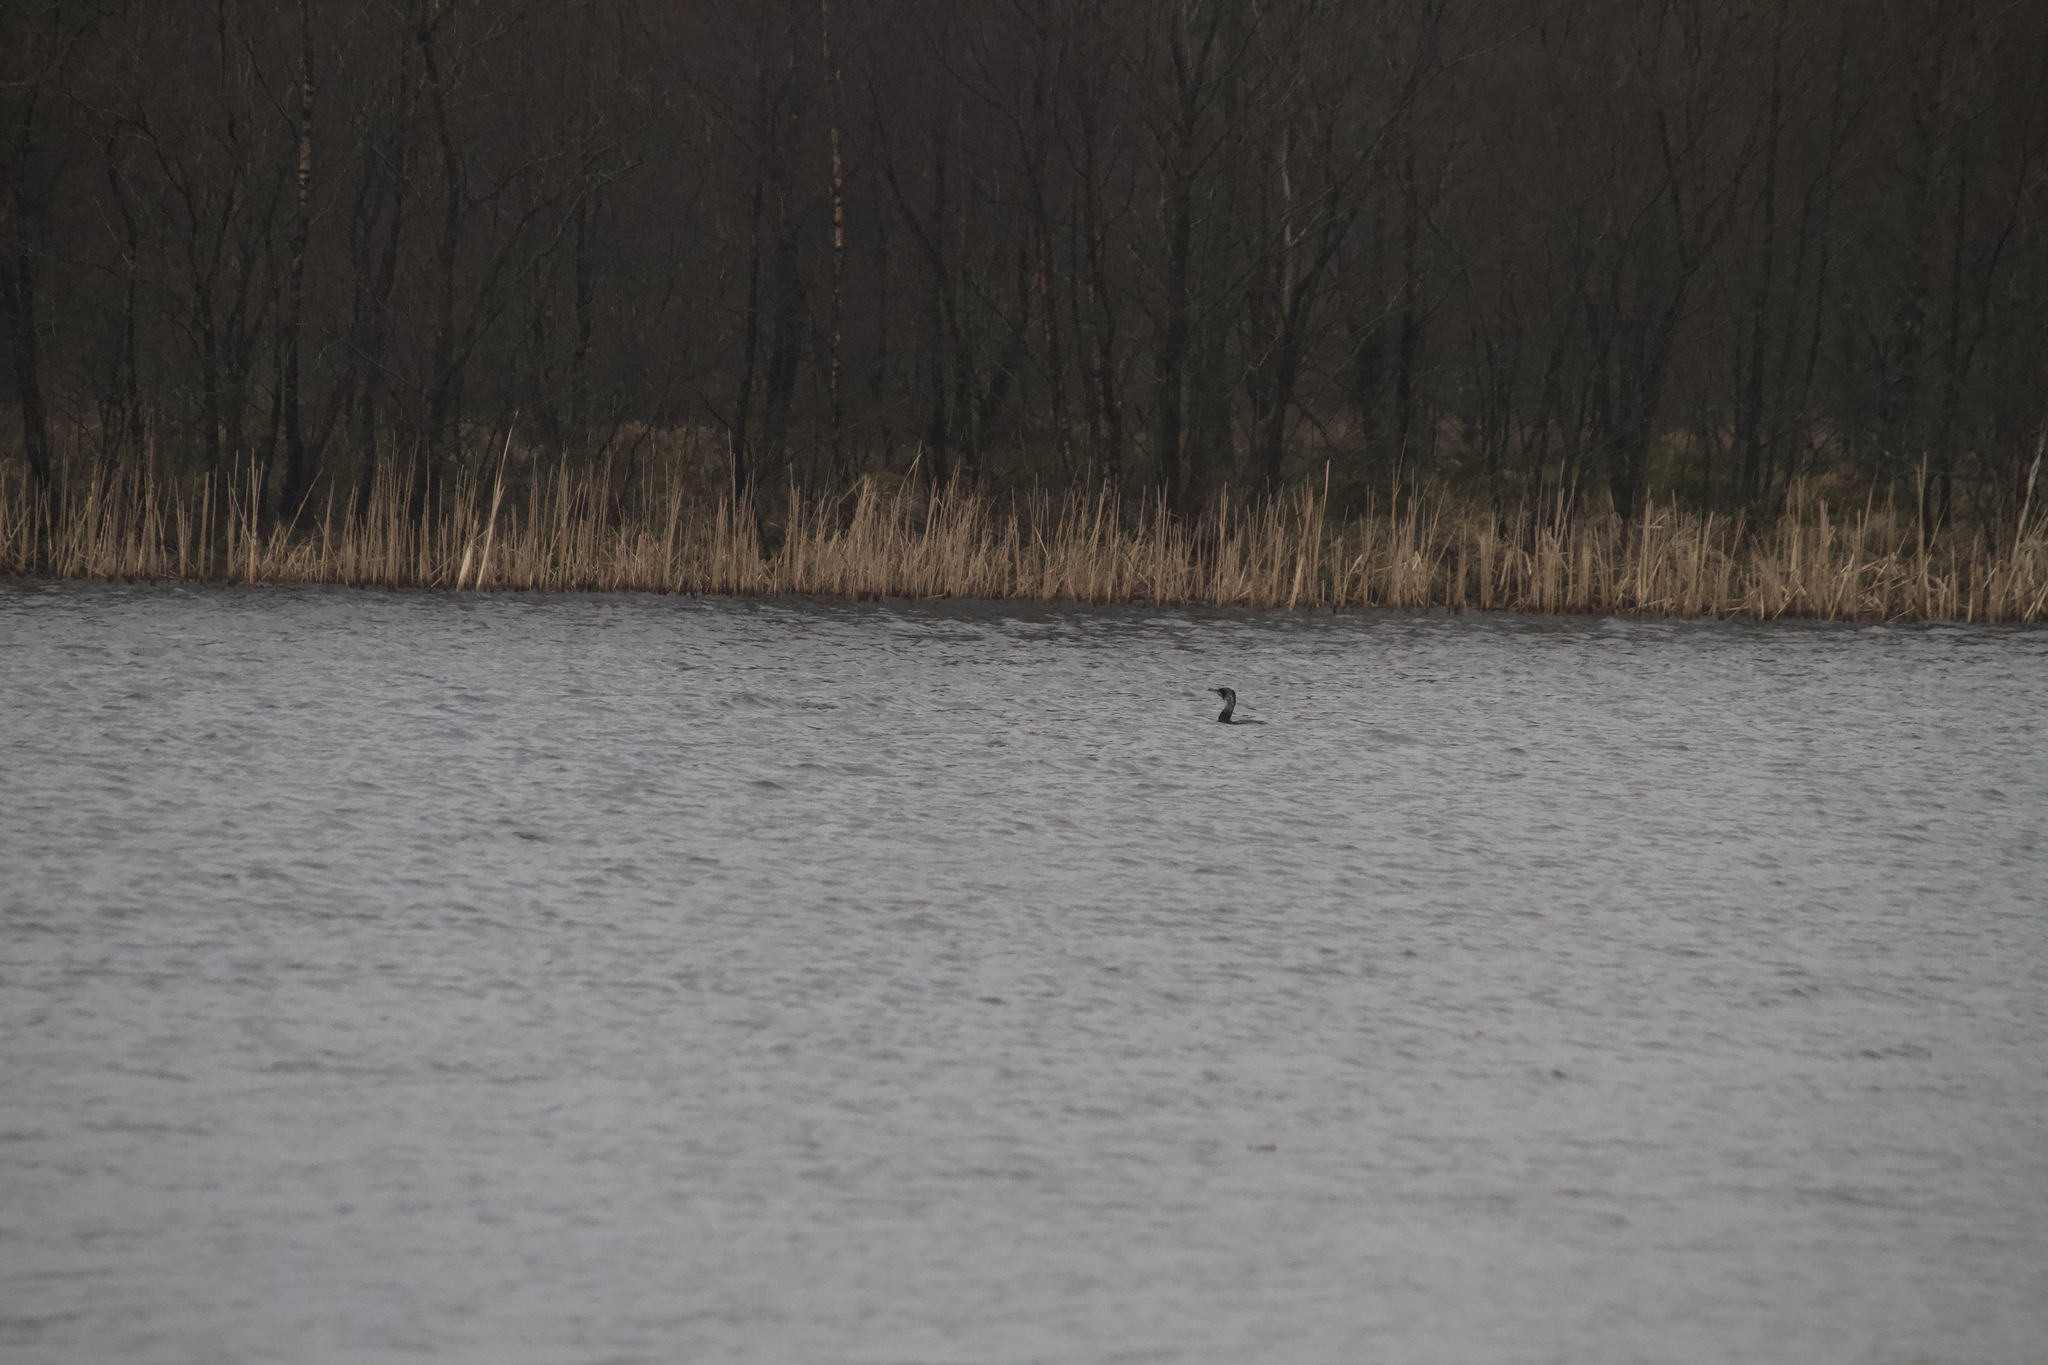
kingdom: Animalia
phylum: Chordata
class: Aves
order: Suliformes
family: Phalacrocoracidae
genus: Phalacrocorax
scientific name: Phalacrocorax carbo
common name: Great cormorant
